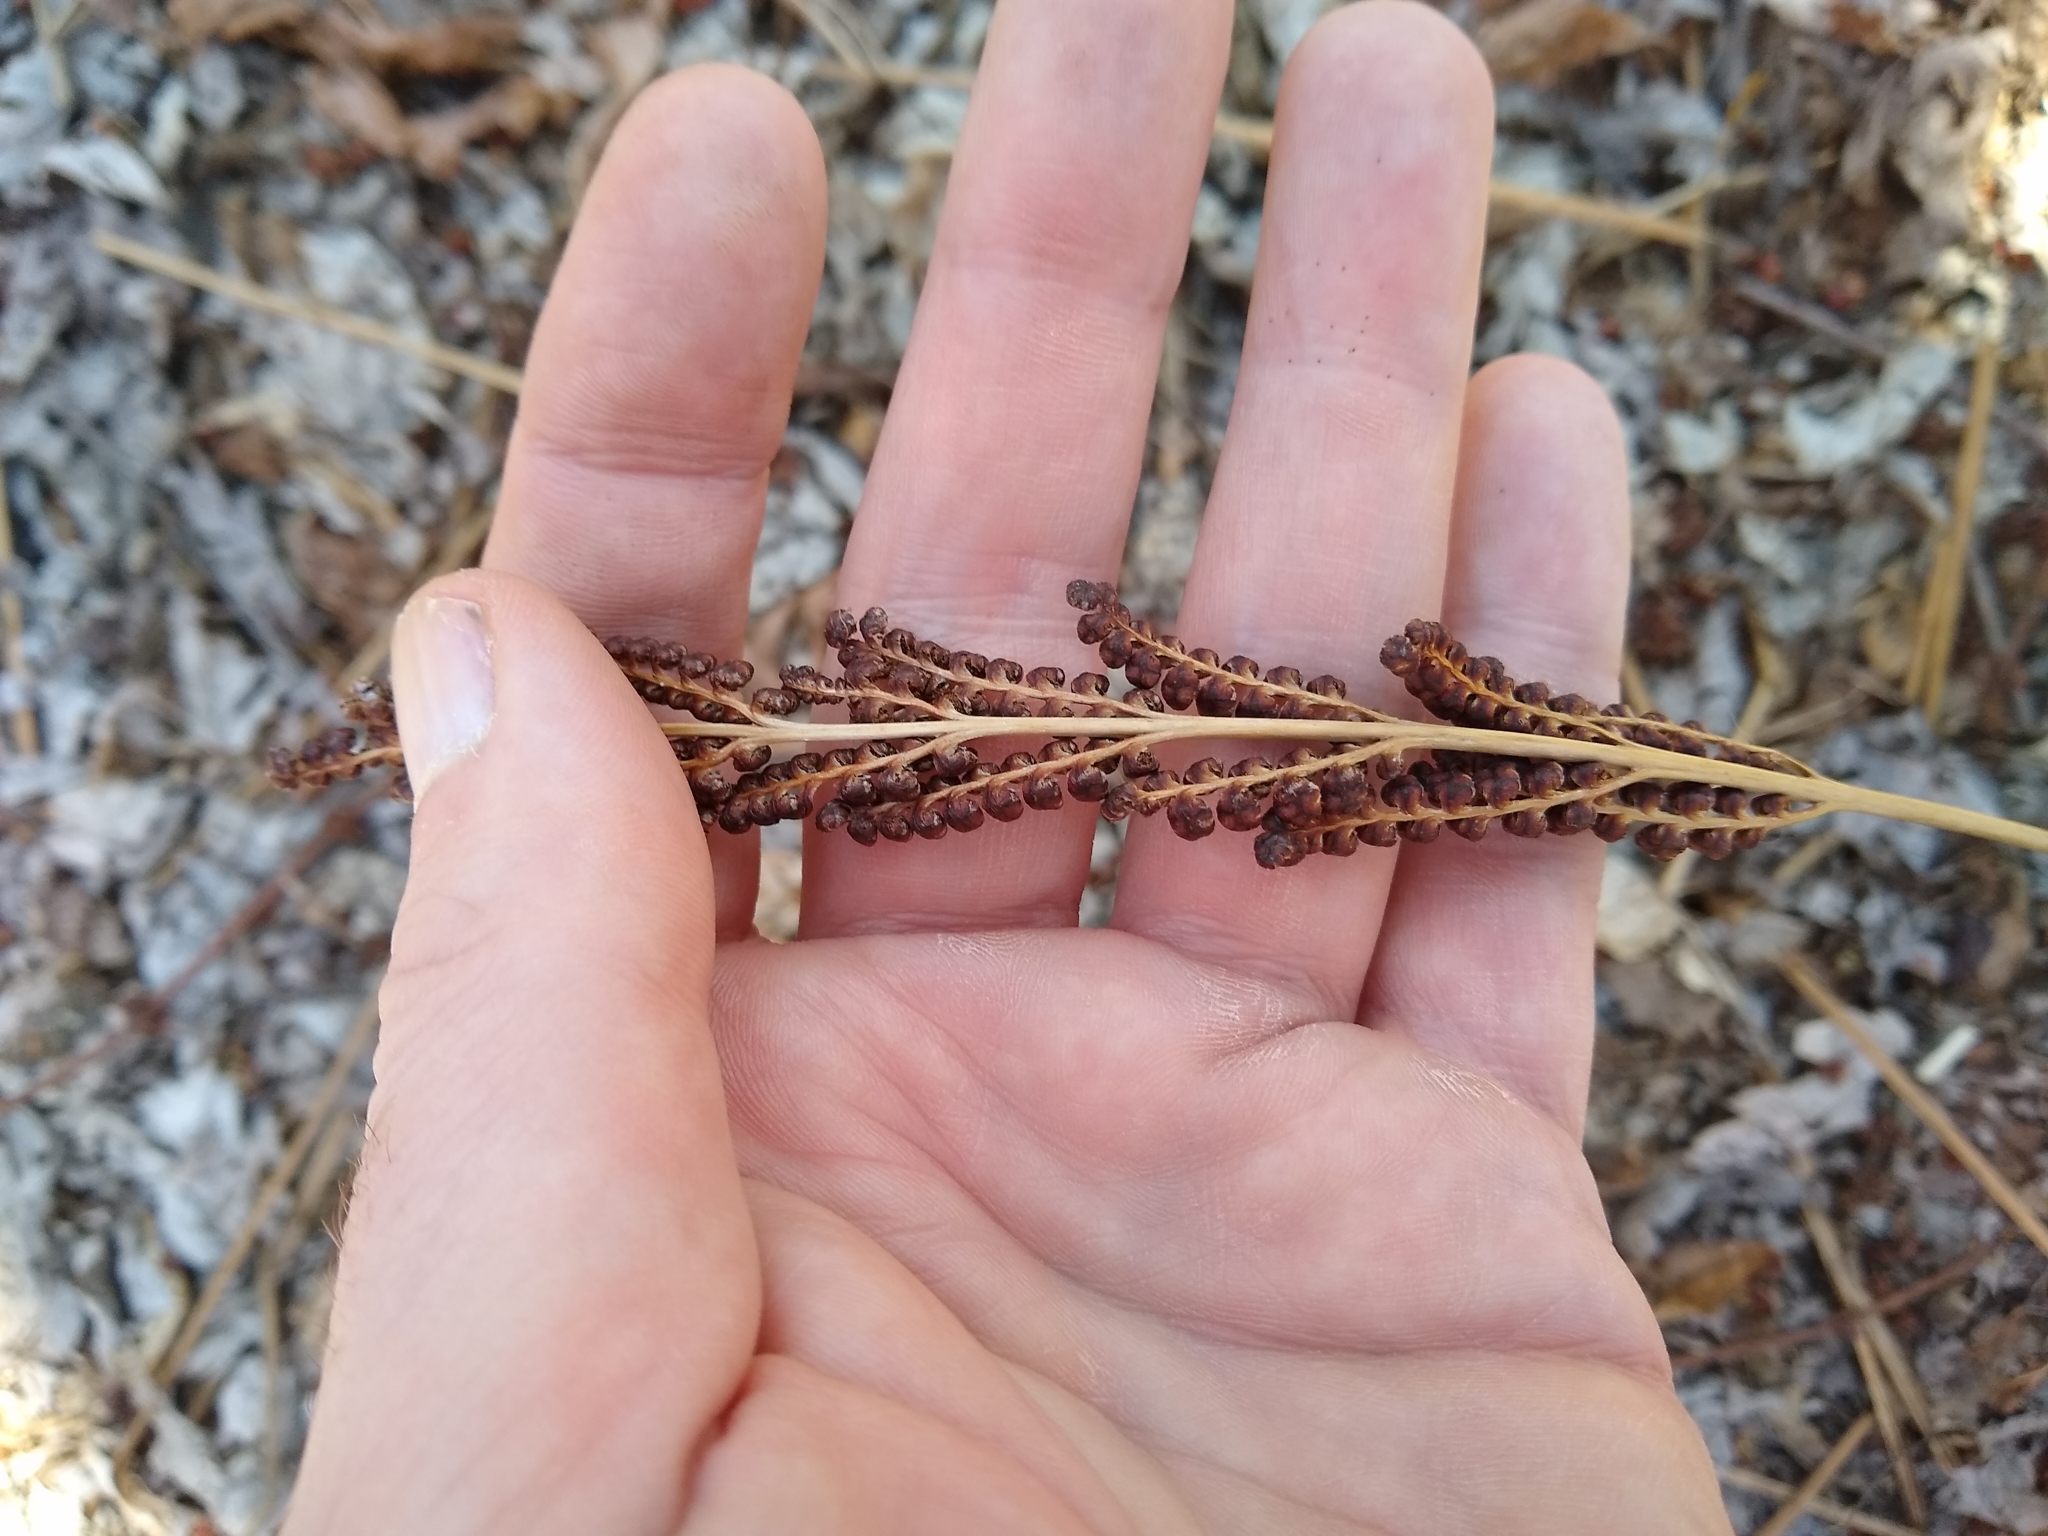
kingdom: Plantae
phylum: Tracheophyta
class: Polypodiopsida
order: Polypodiales
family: Onocleaceae
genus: Onoclea
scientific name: Onoclea sensibilis
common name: Sensitive fern
